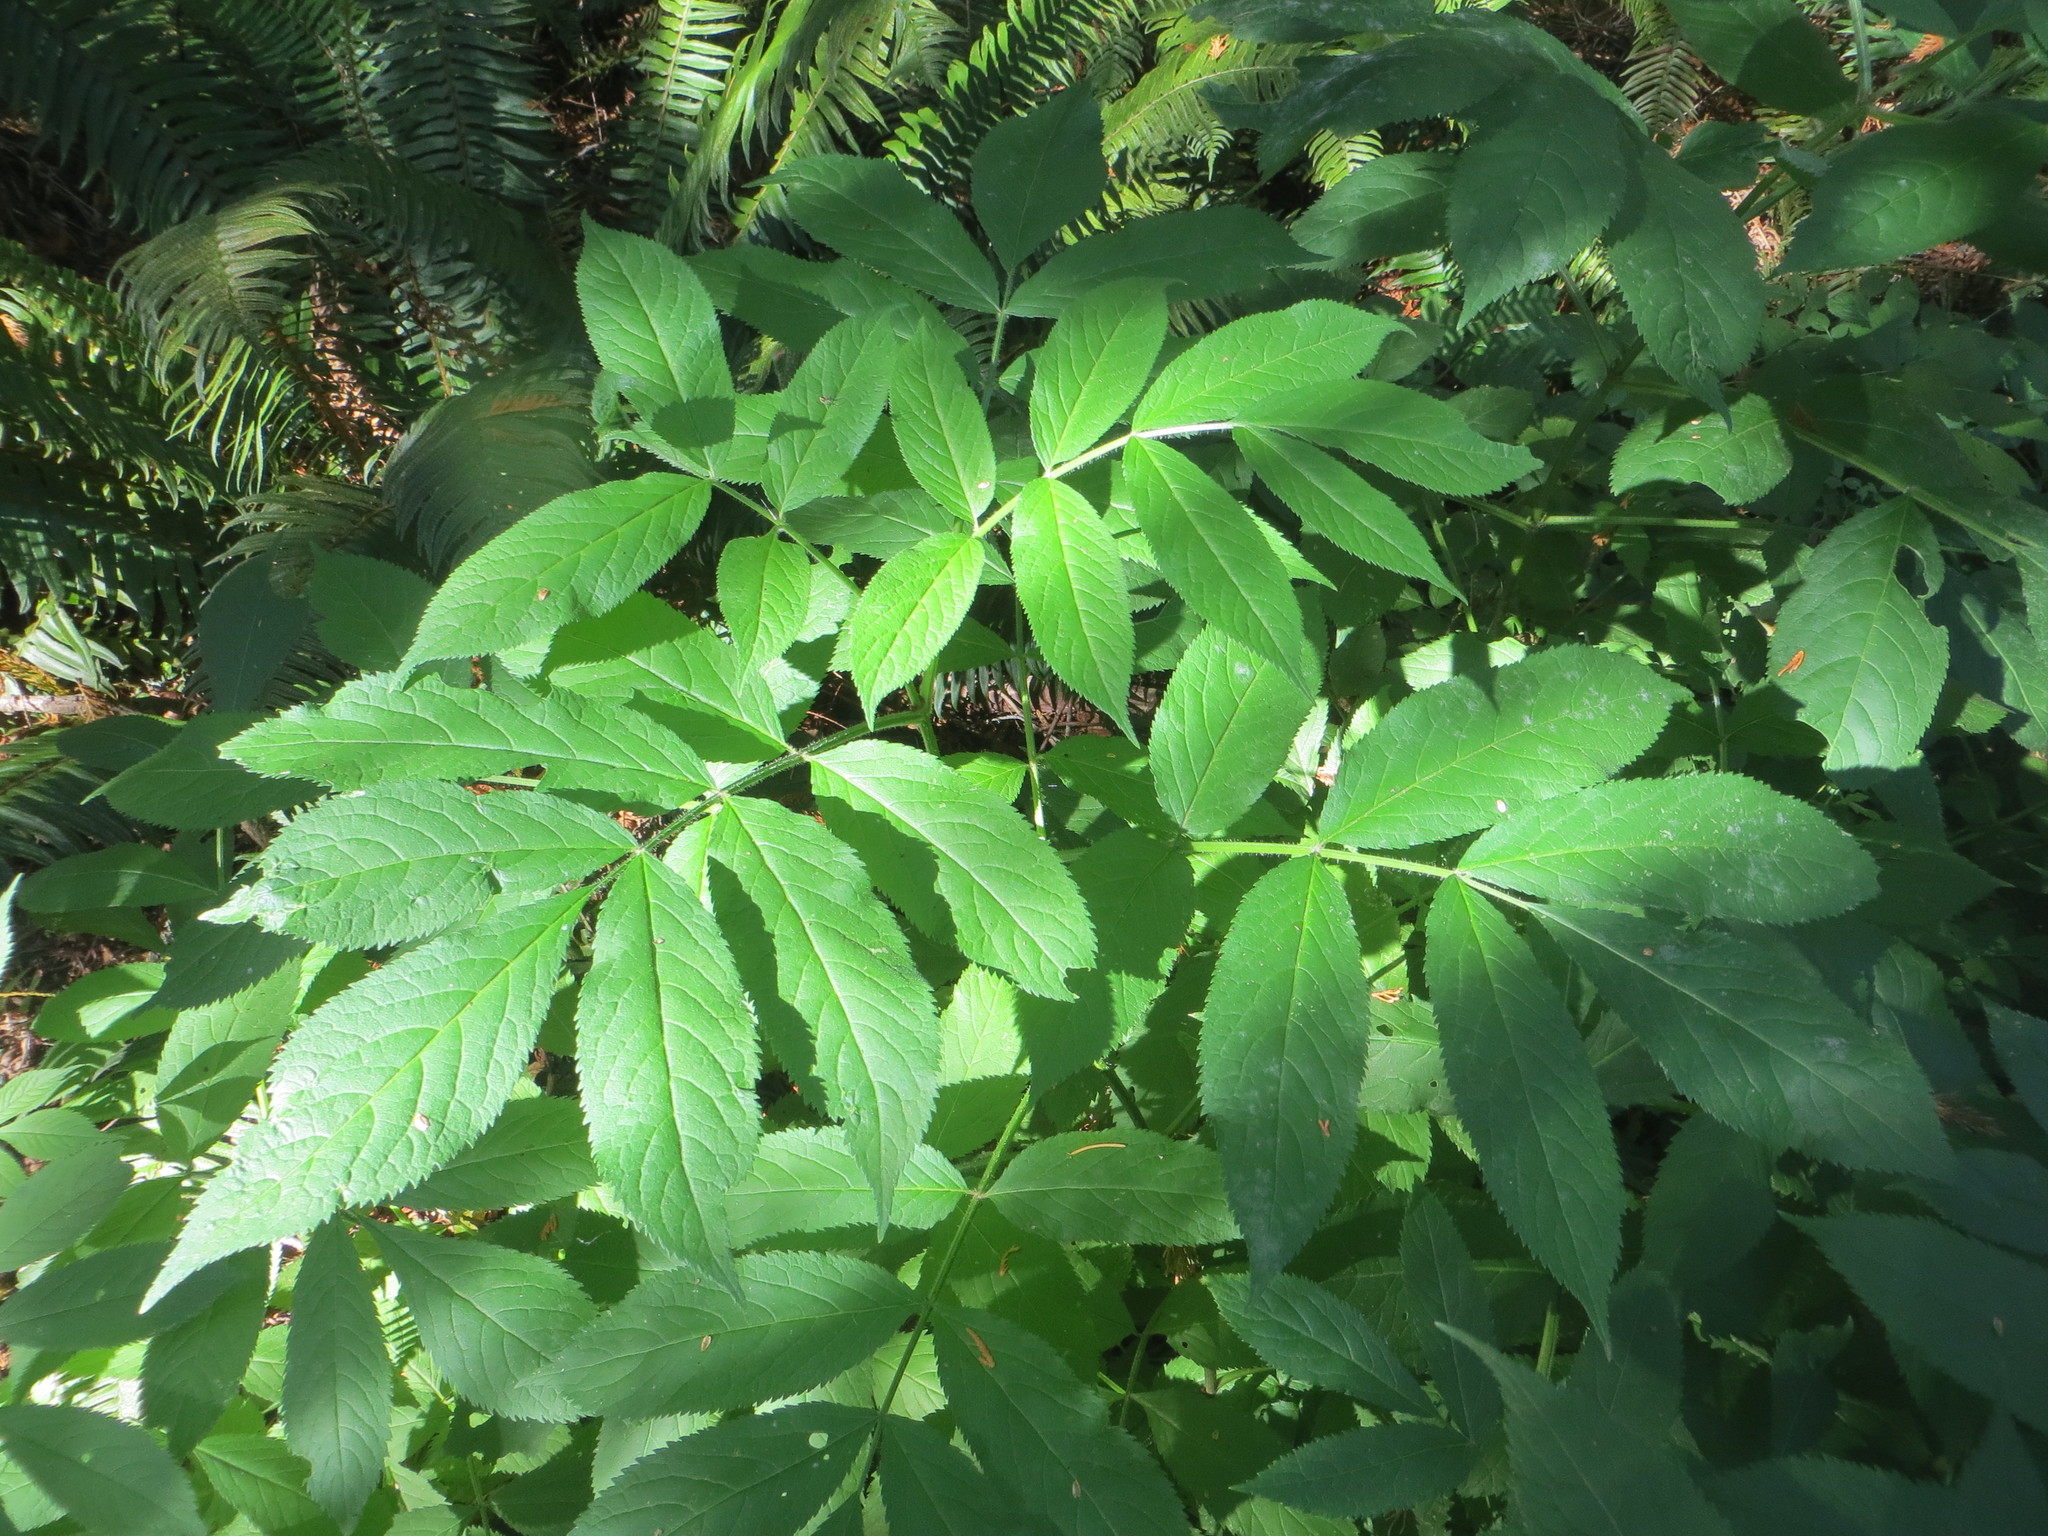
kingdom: Plantae
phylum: Tracheophyta
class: Magnoliopsida
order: Dipsacales
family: Viburnaceae
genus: Sambucus
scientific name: Sambucus racemosa
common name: Red-berried elder
